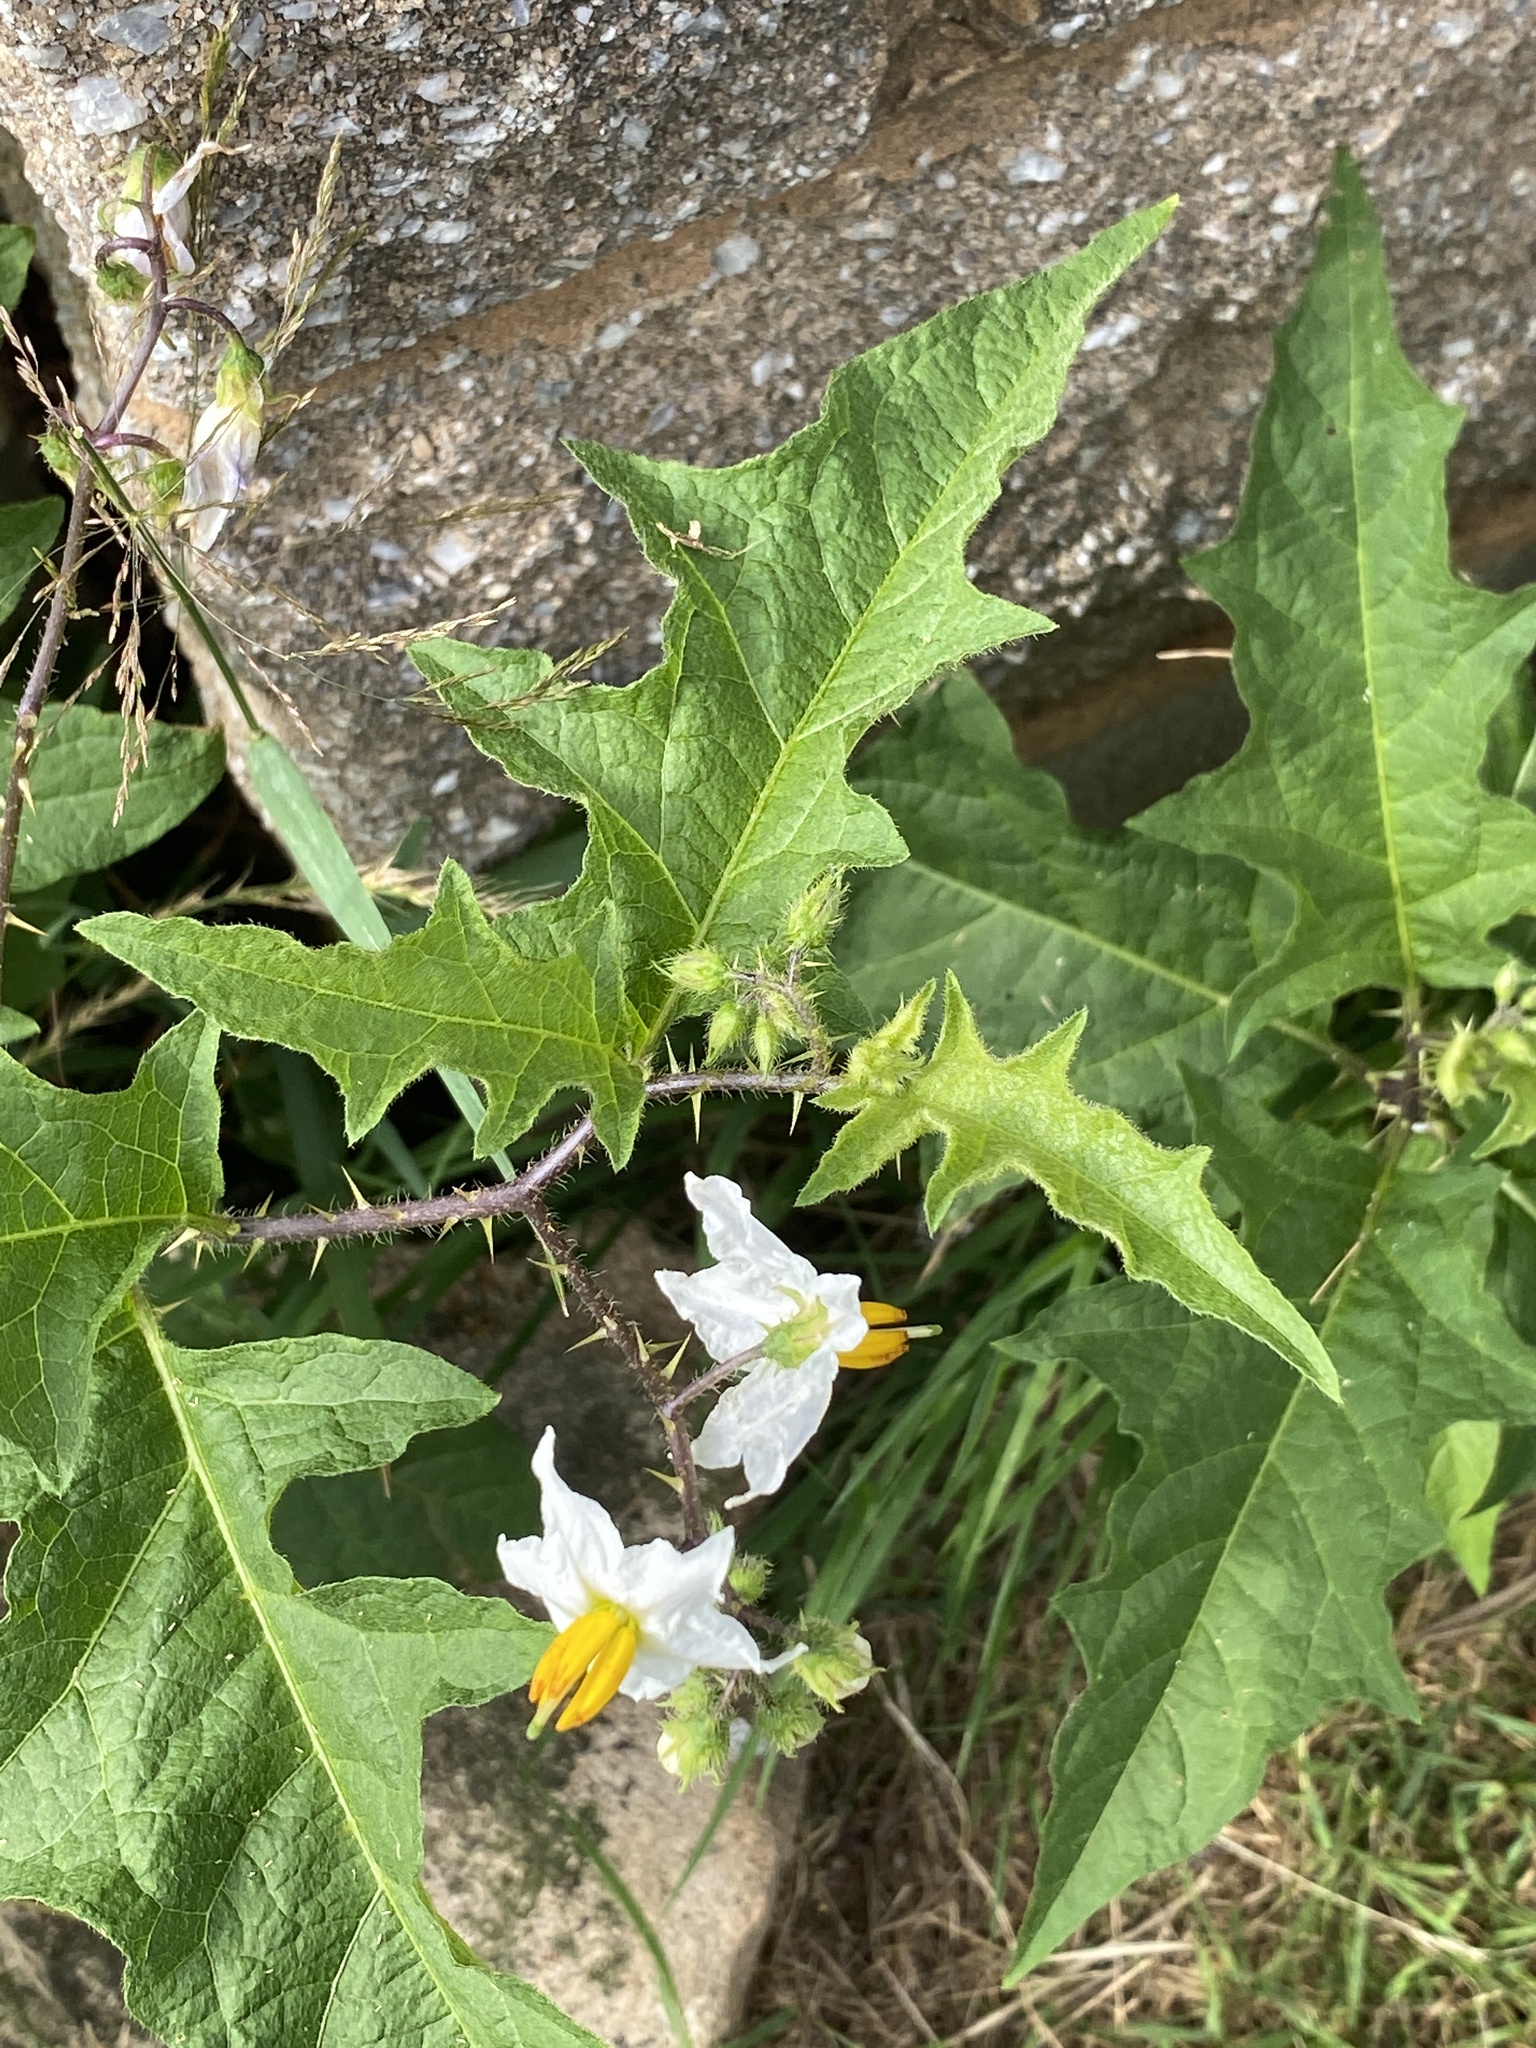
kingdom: Plantae
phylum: Tracheophyta
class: Magnoliopsida
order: Solanales
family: Solanaceae
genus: Solanum
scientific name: Solanum carolinense
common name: Horse-nettle
